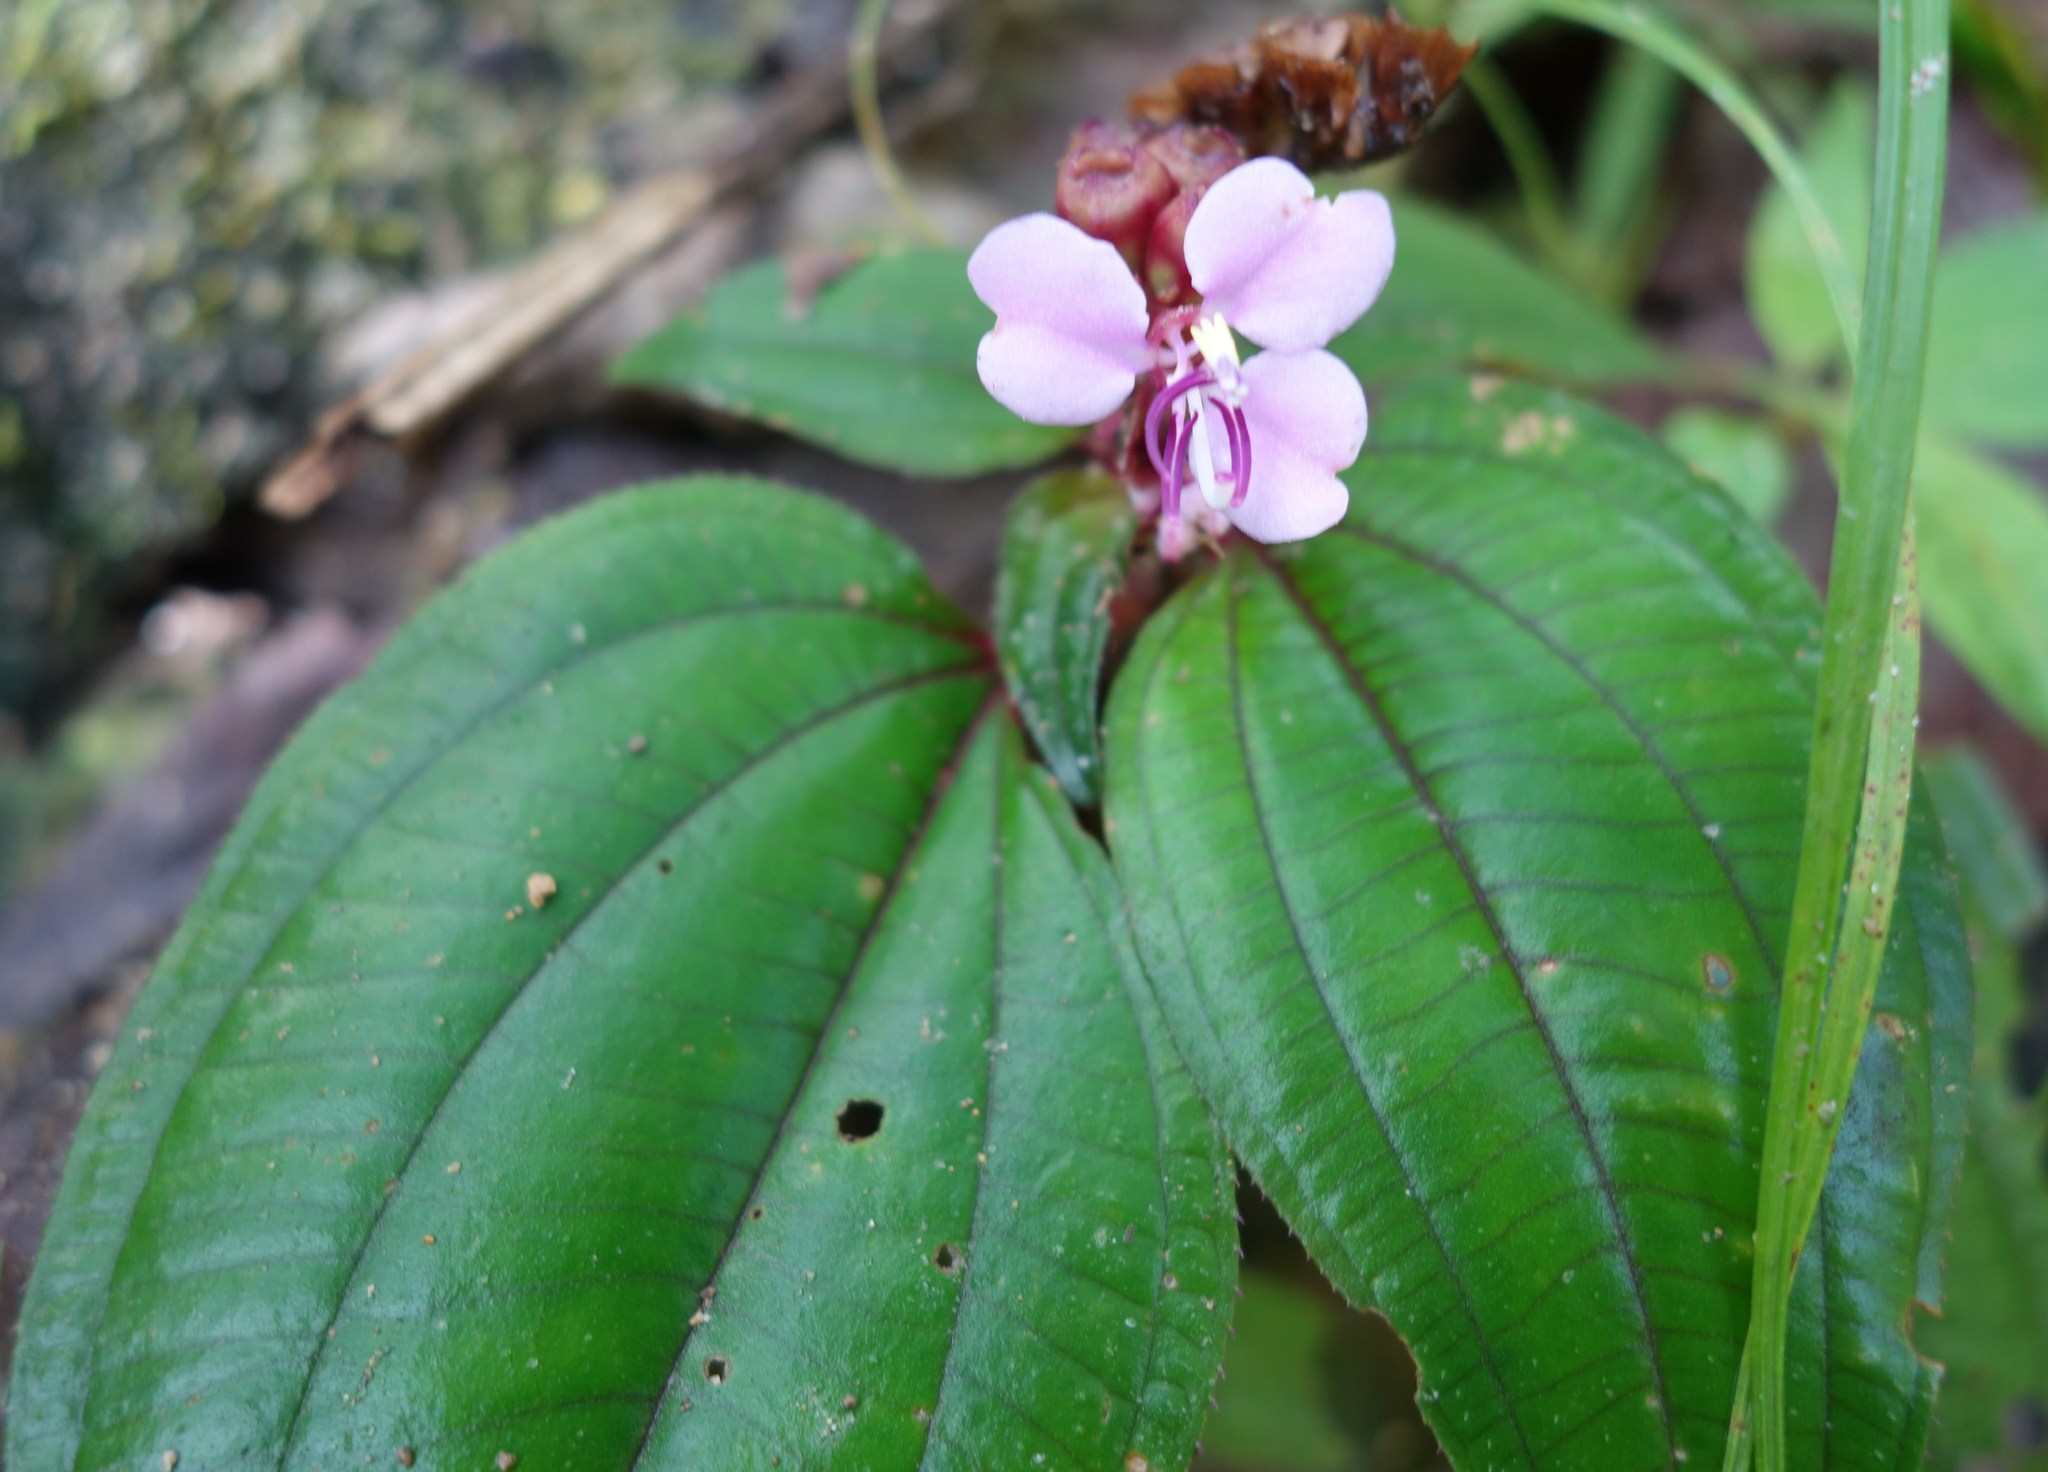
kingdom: Plantae
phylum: Tracheophyta
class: Magnoliopsida
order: Myrtales
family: Melastomataceae
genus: Sonerila
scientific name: Sonerila obliqua
